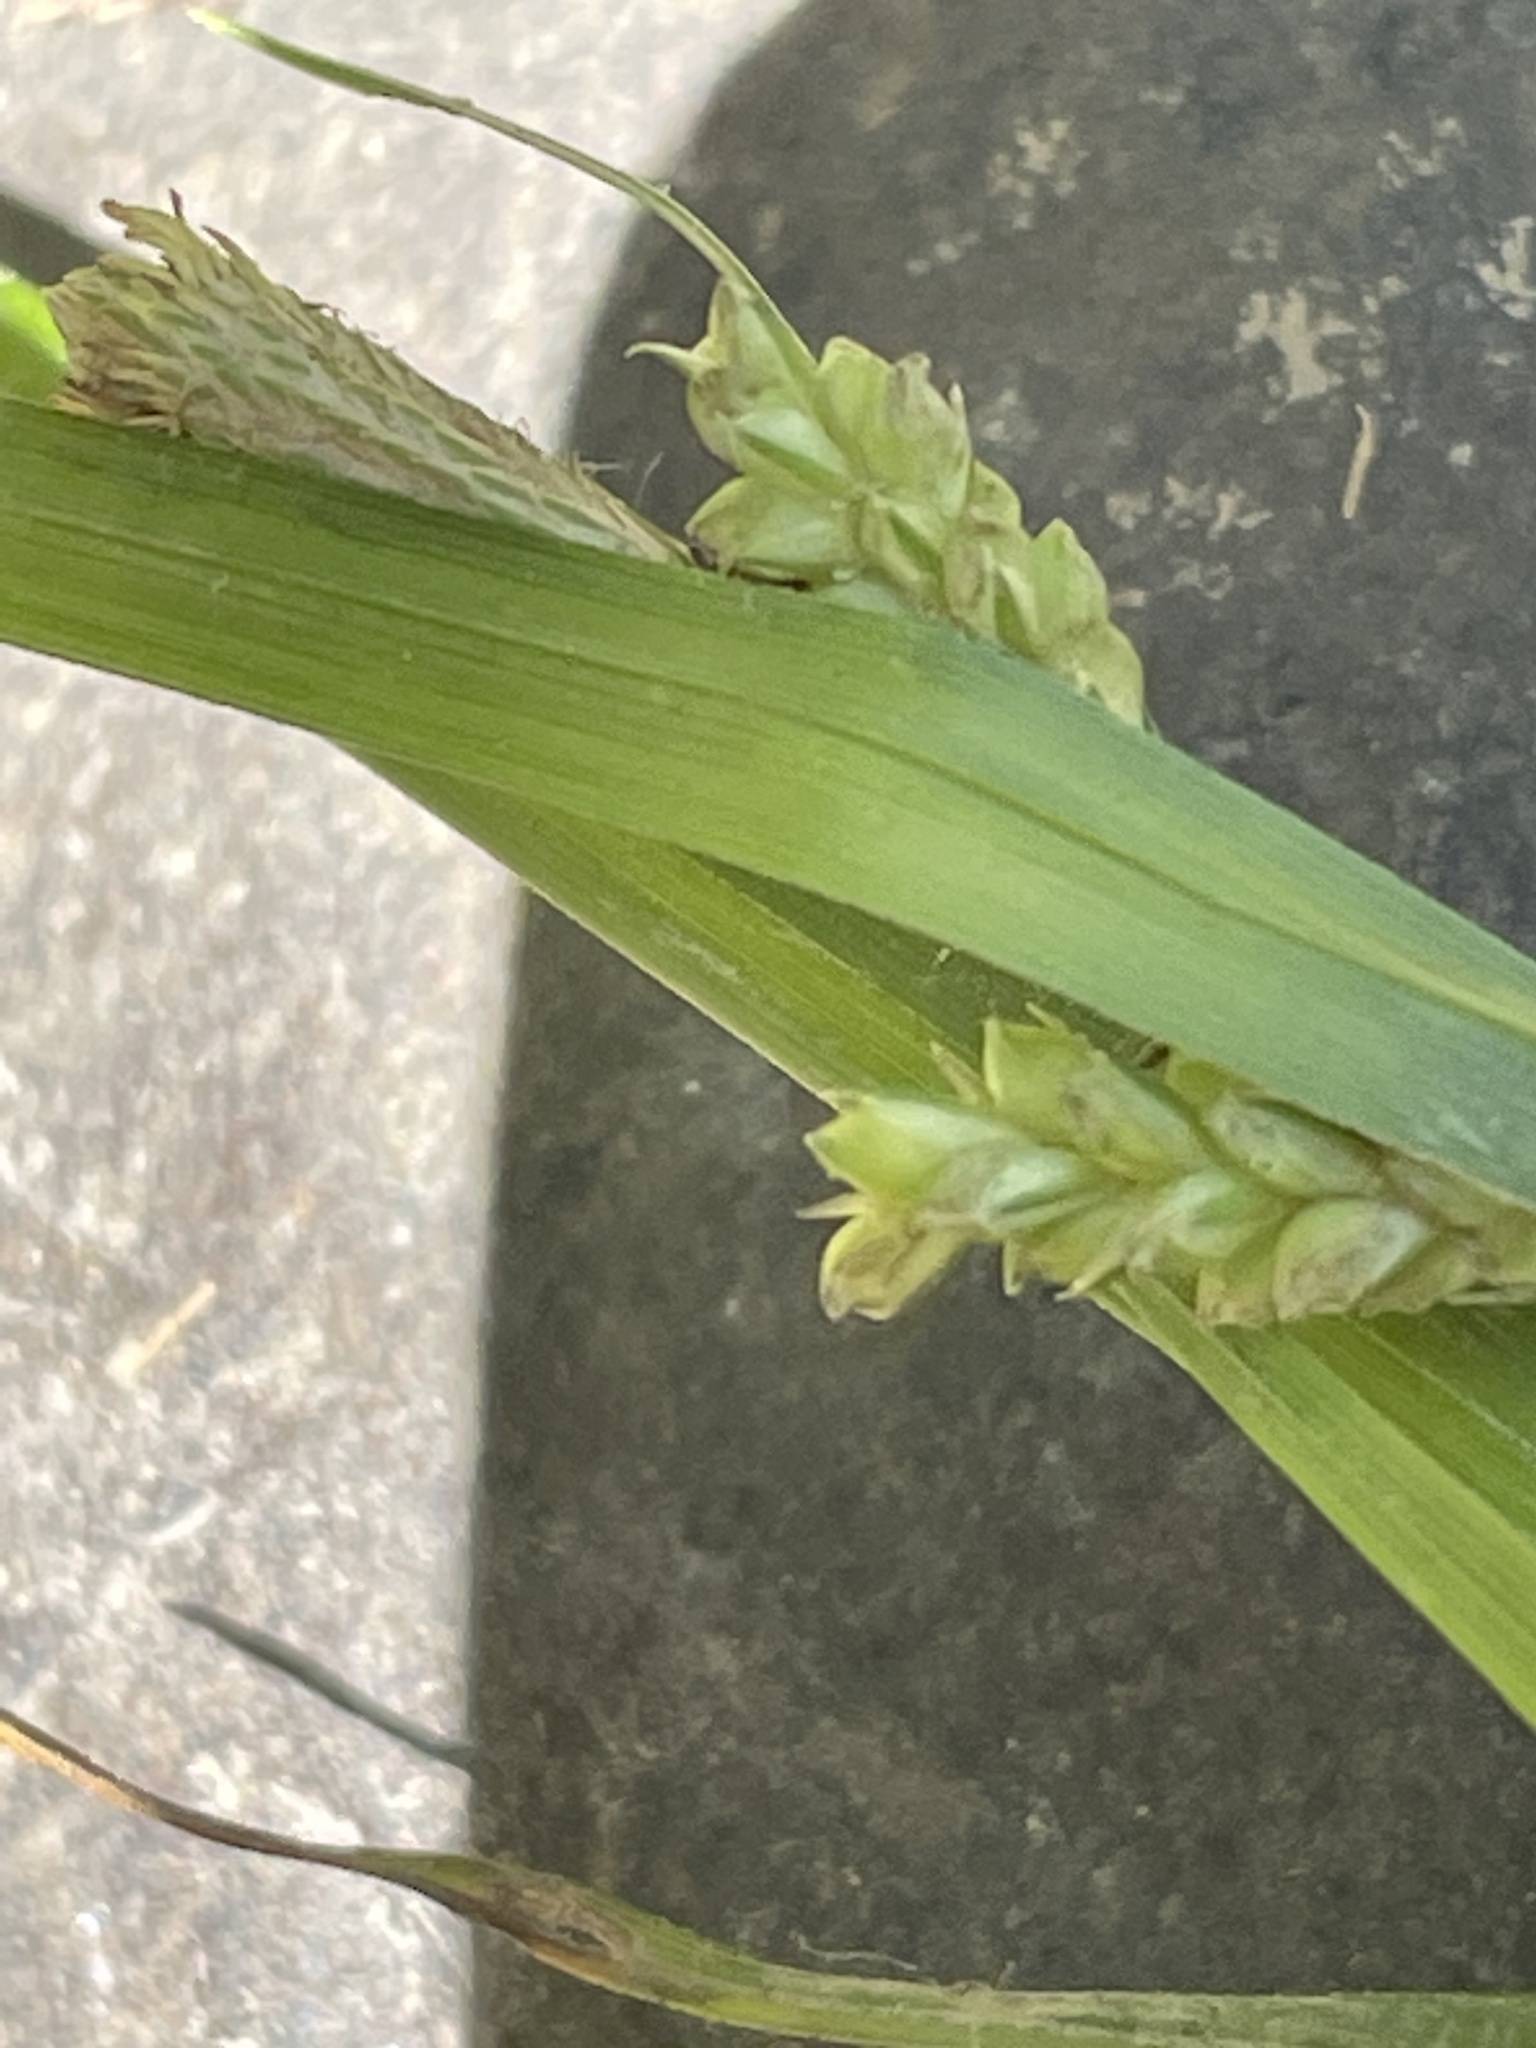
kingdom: Plantae
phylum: Tracheophyta
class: Liliopsida
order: Poales
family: Cyperaceae
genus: Carex
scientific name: Carex blanda
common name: Bland sedge
